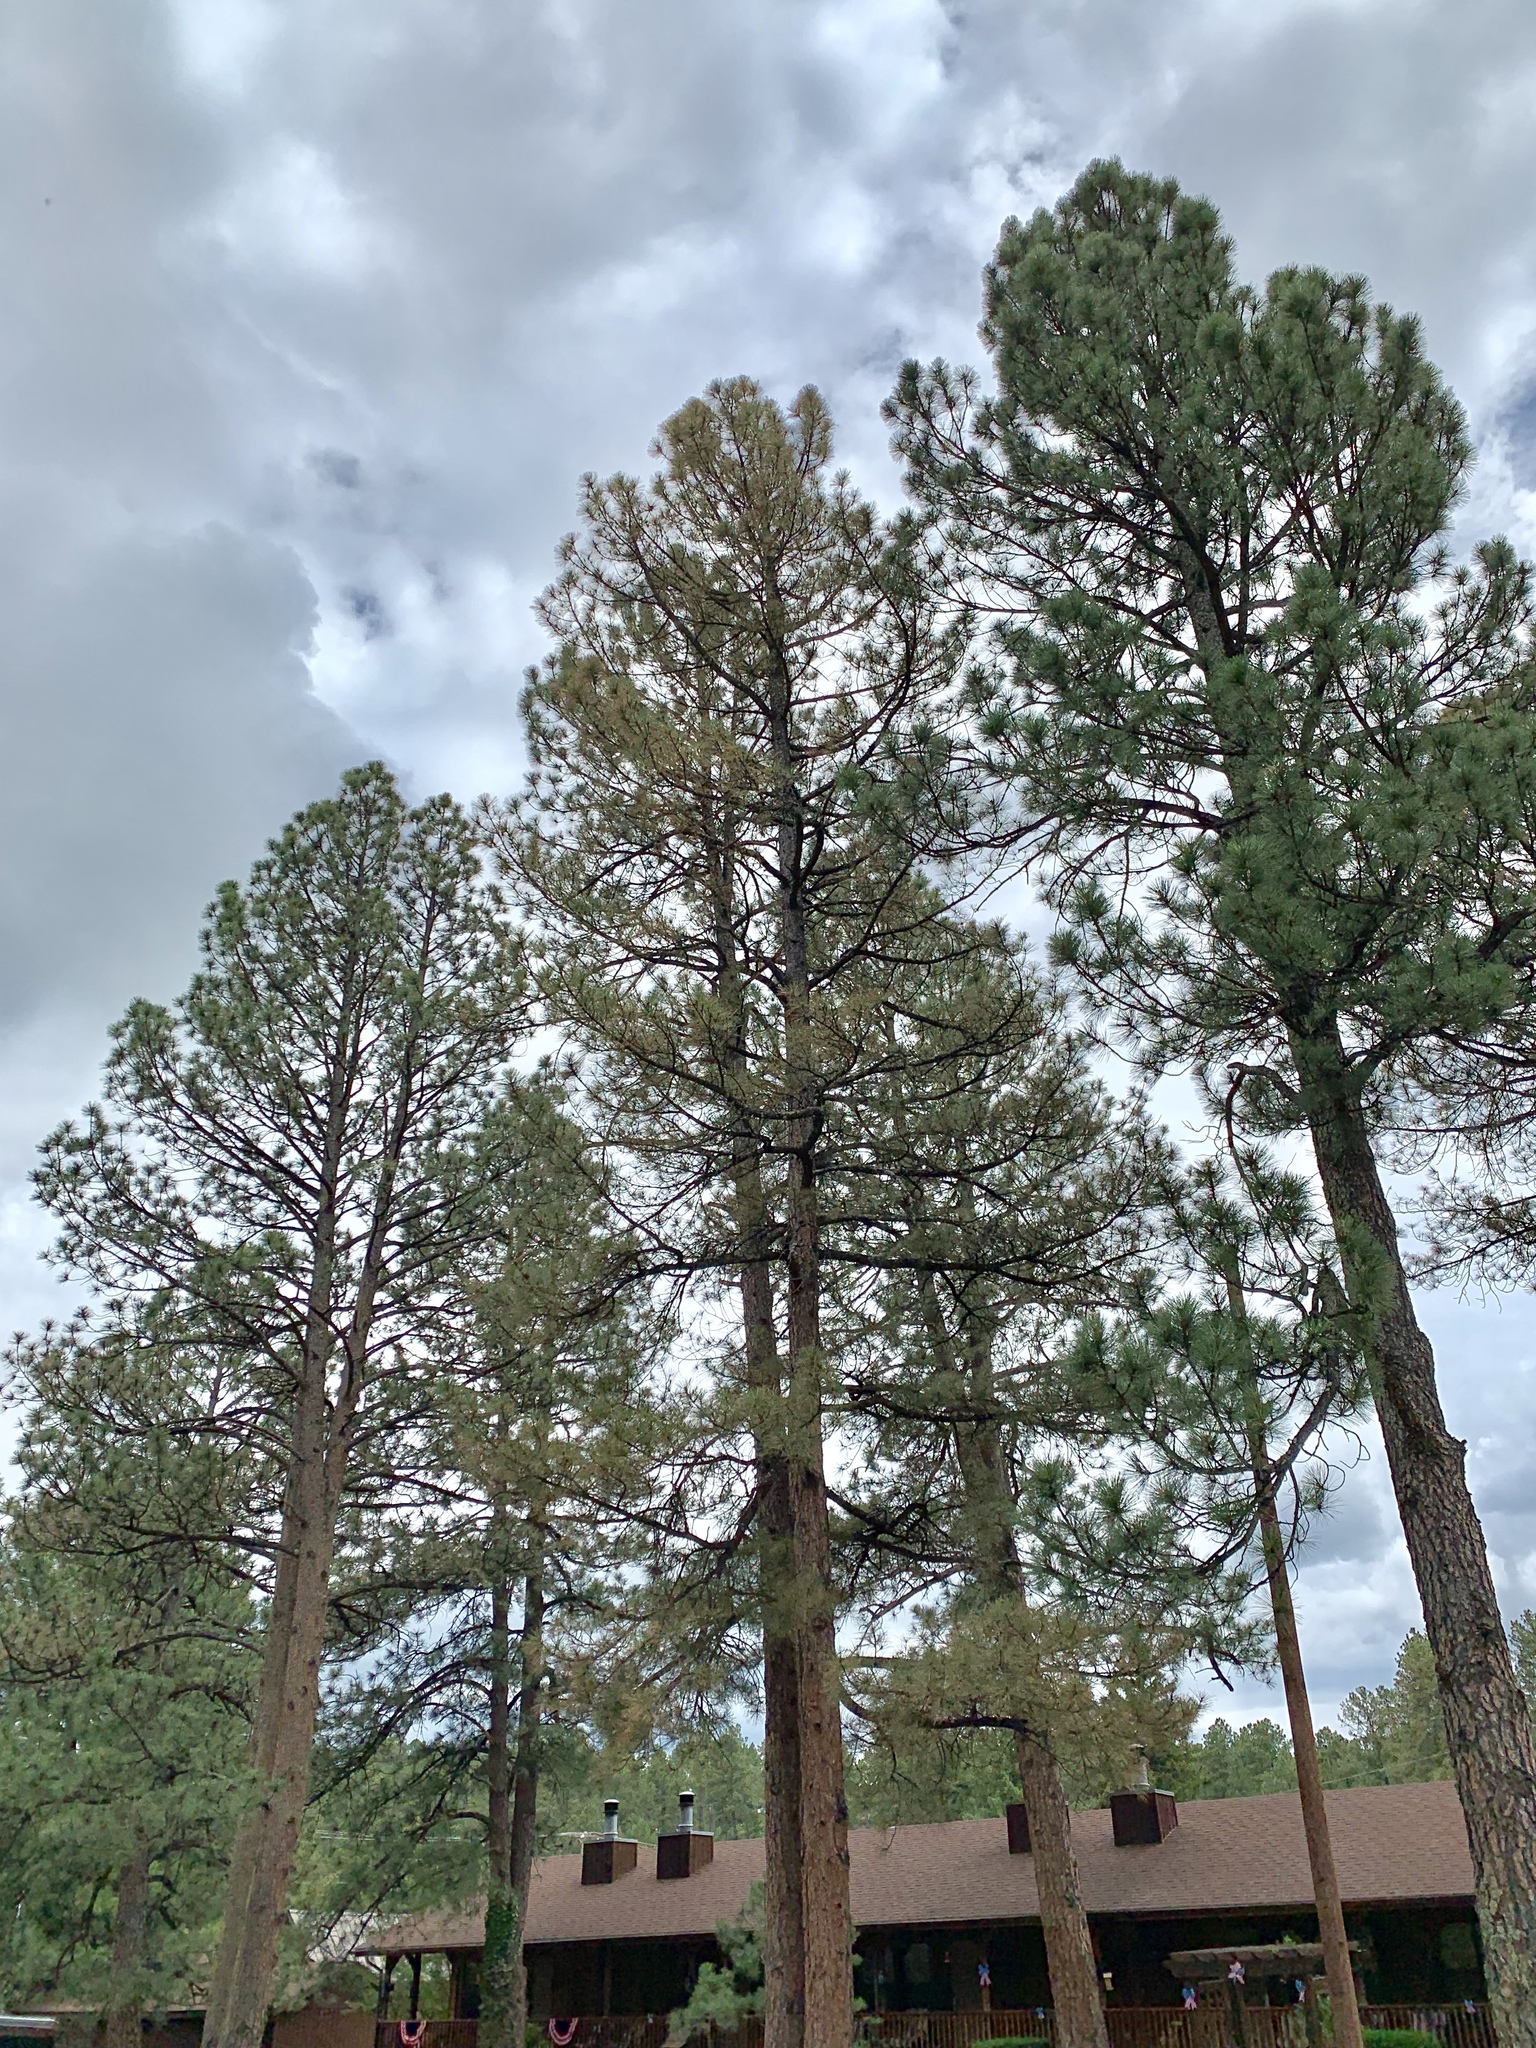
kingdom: Plantae
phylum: Tracheophyta
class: Pinopsida
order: Pinales
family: Pinaceae
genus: Pinus
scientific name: Pinus ponderosa
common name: Western yellow-pine
